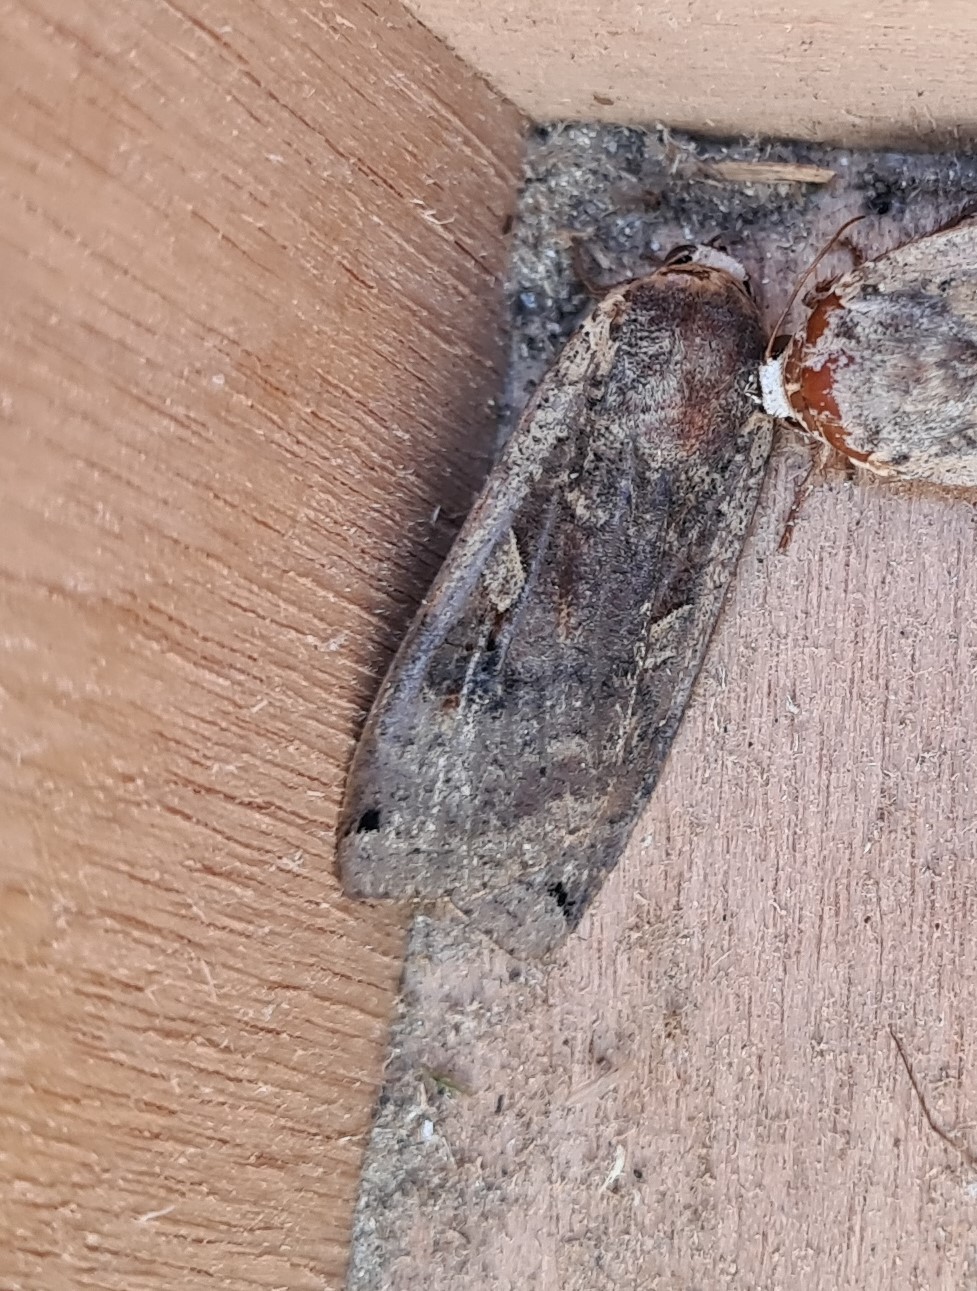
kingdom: Animalia
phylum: Arthropoda
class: Insecta
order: Lepidoptera
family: Noctuidae
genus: Noctua
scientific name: Noctua pronuba
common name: Large yellow underwing
